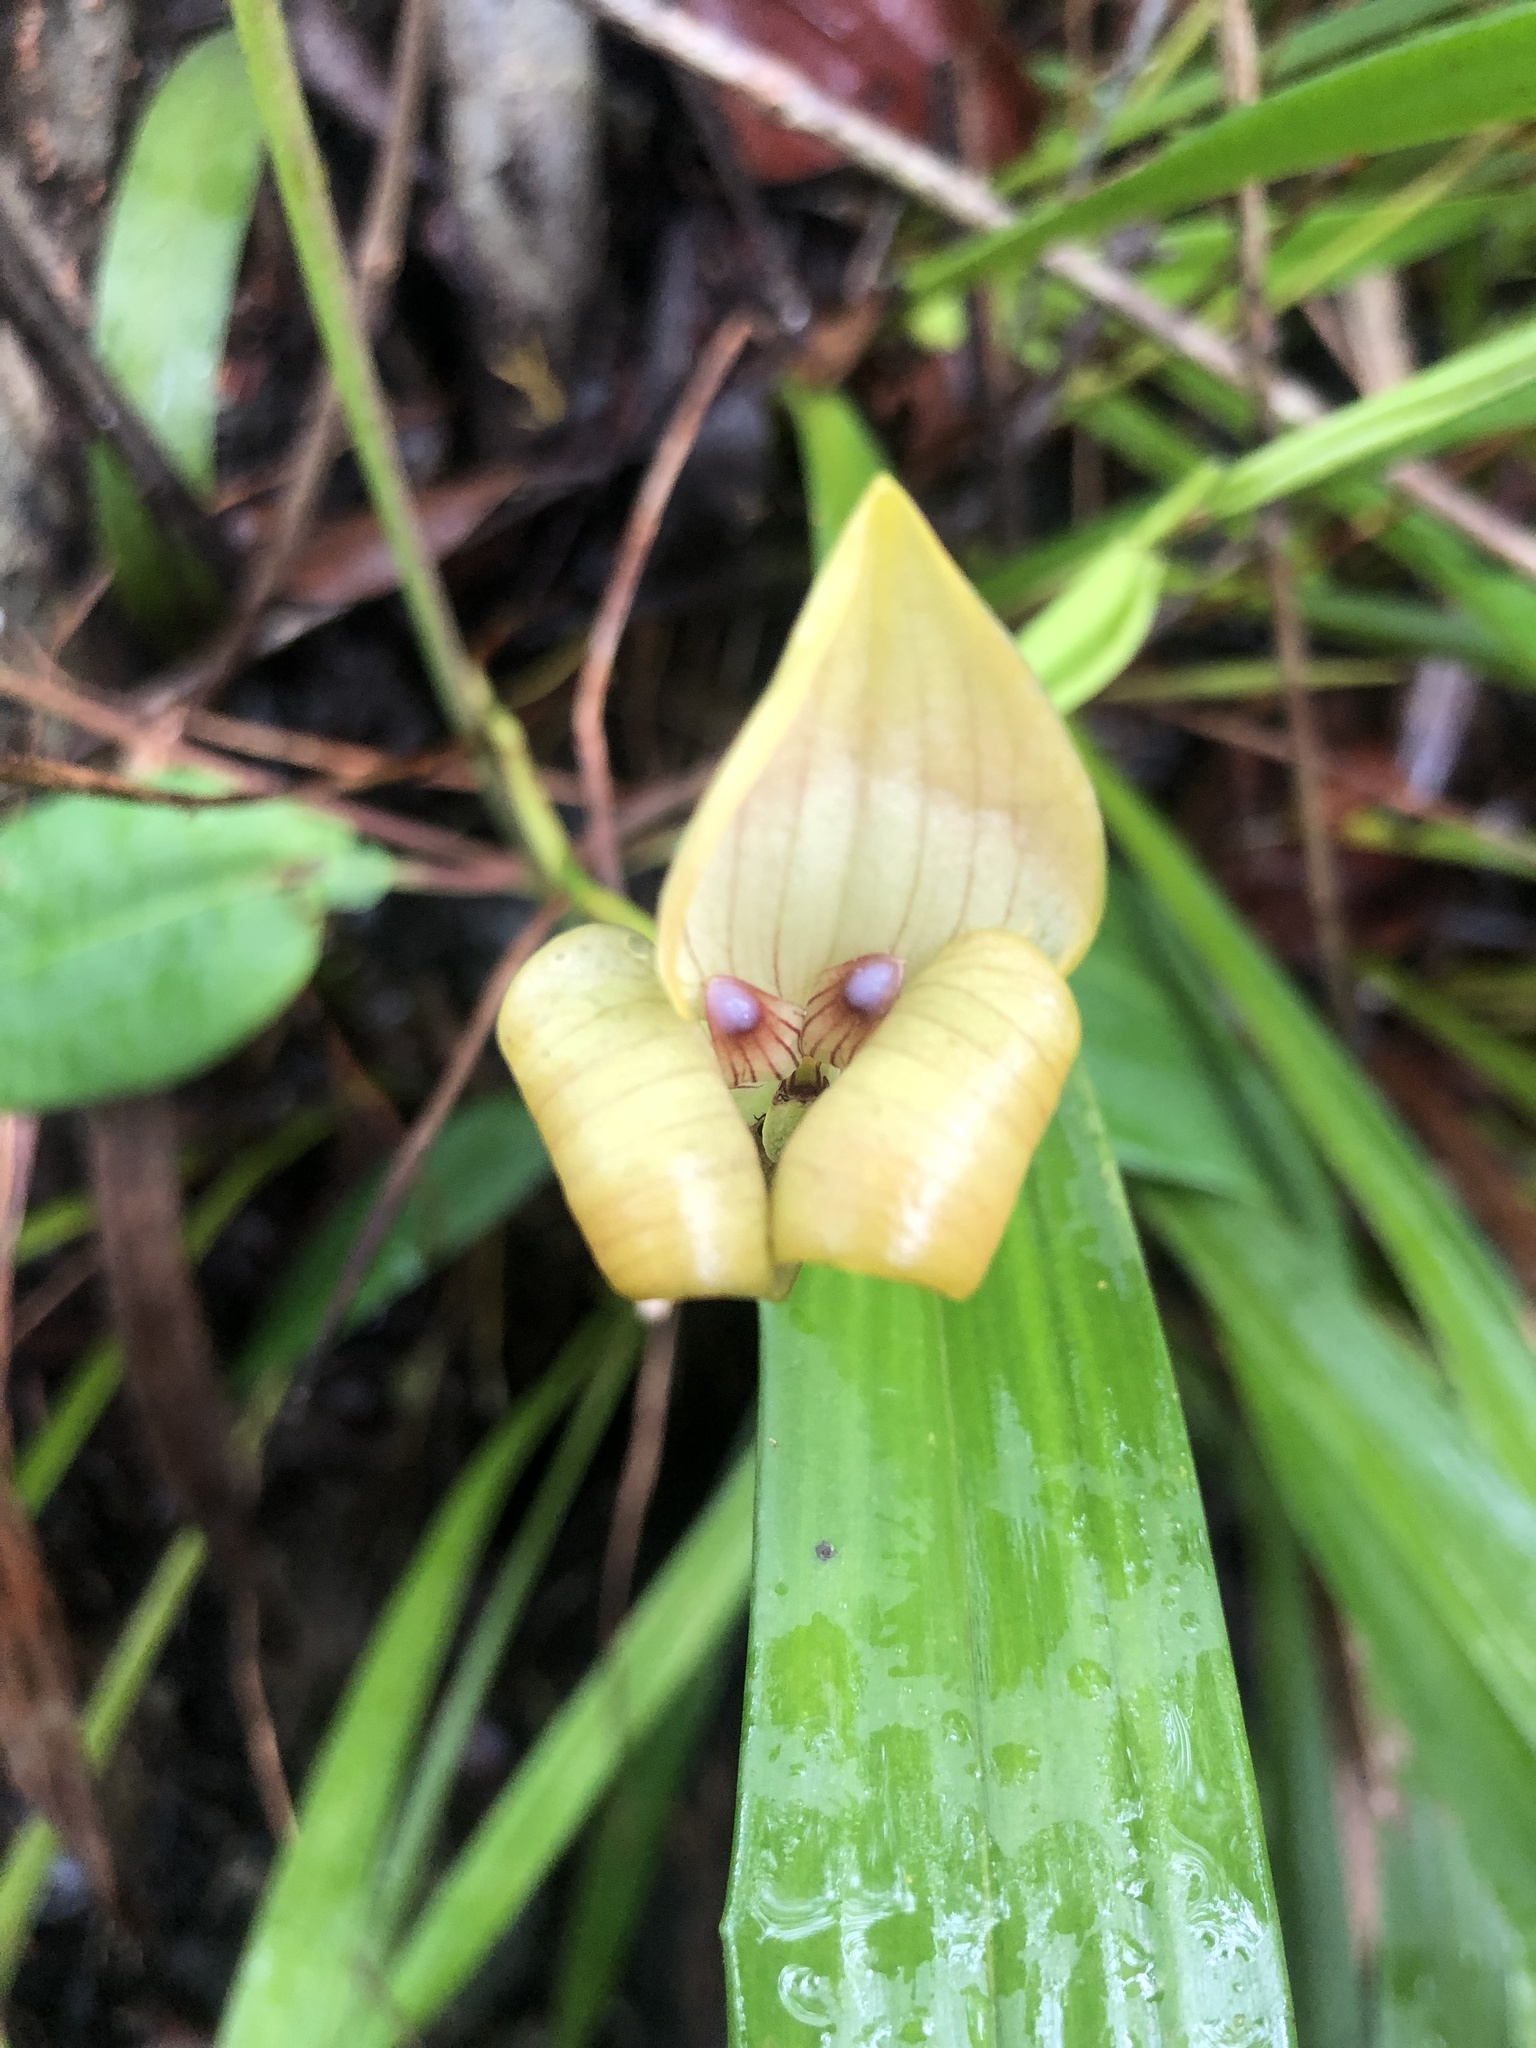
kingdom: Plantae
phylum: Tracheophyta
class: Liliopsida
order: Asparagales
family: Orchidaceae
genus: Maxillaria
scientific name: Maxillaria egertoniana
